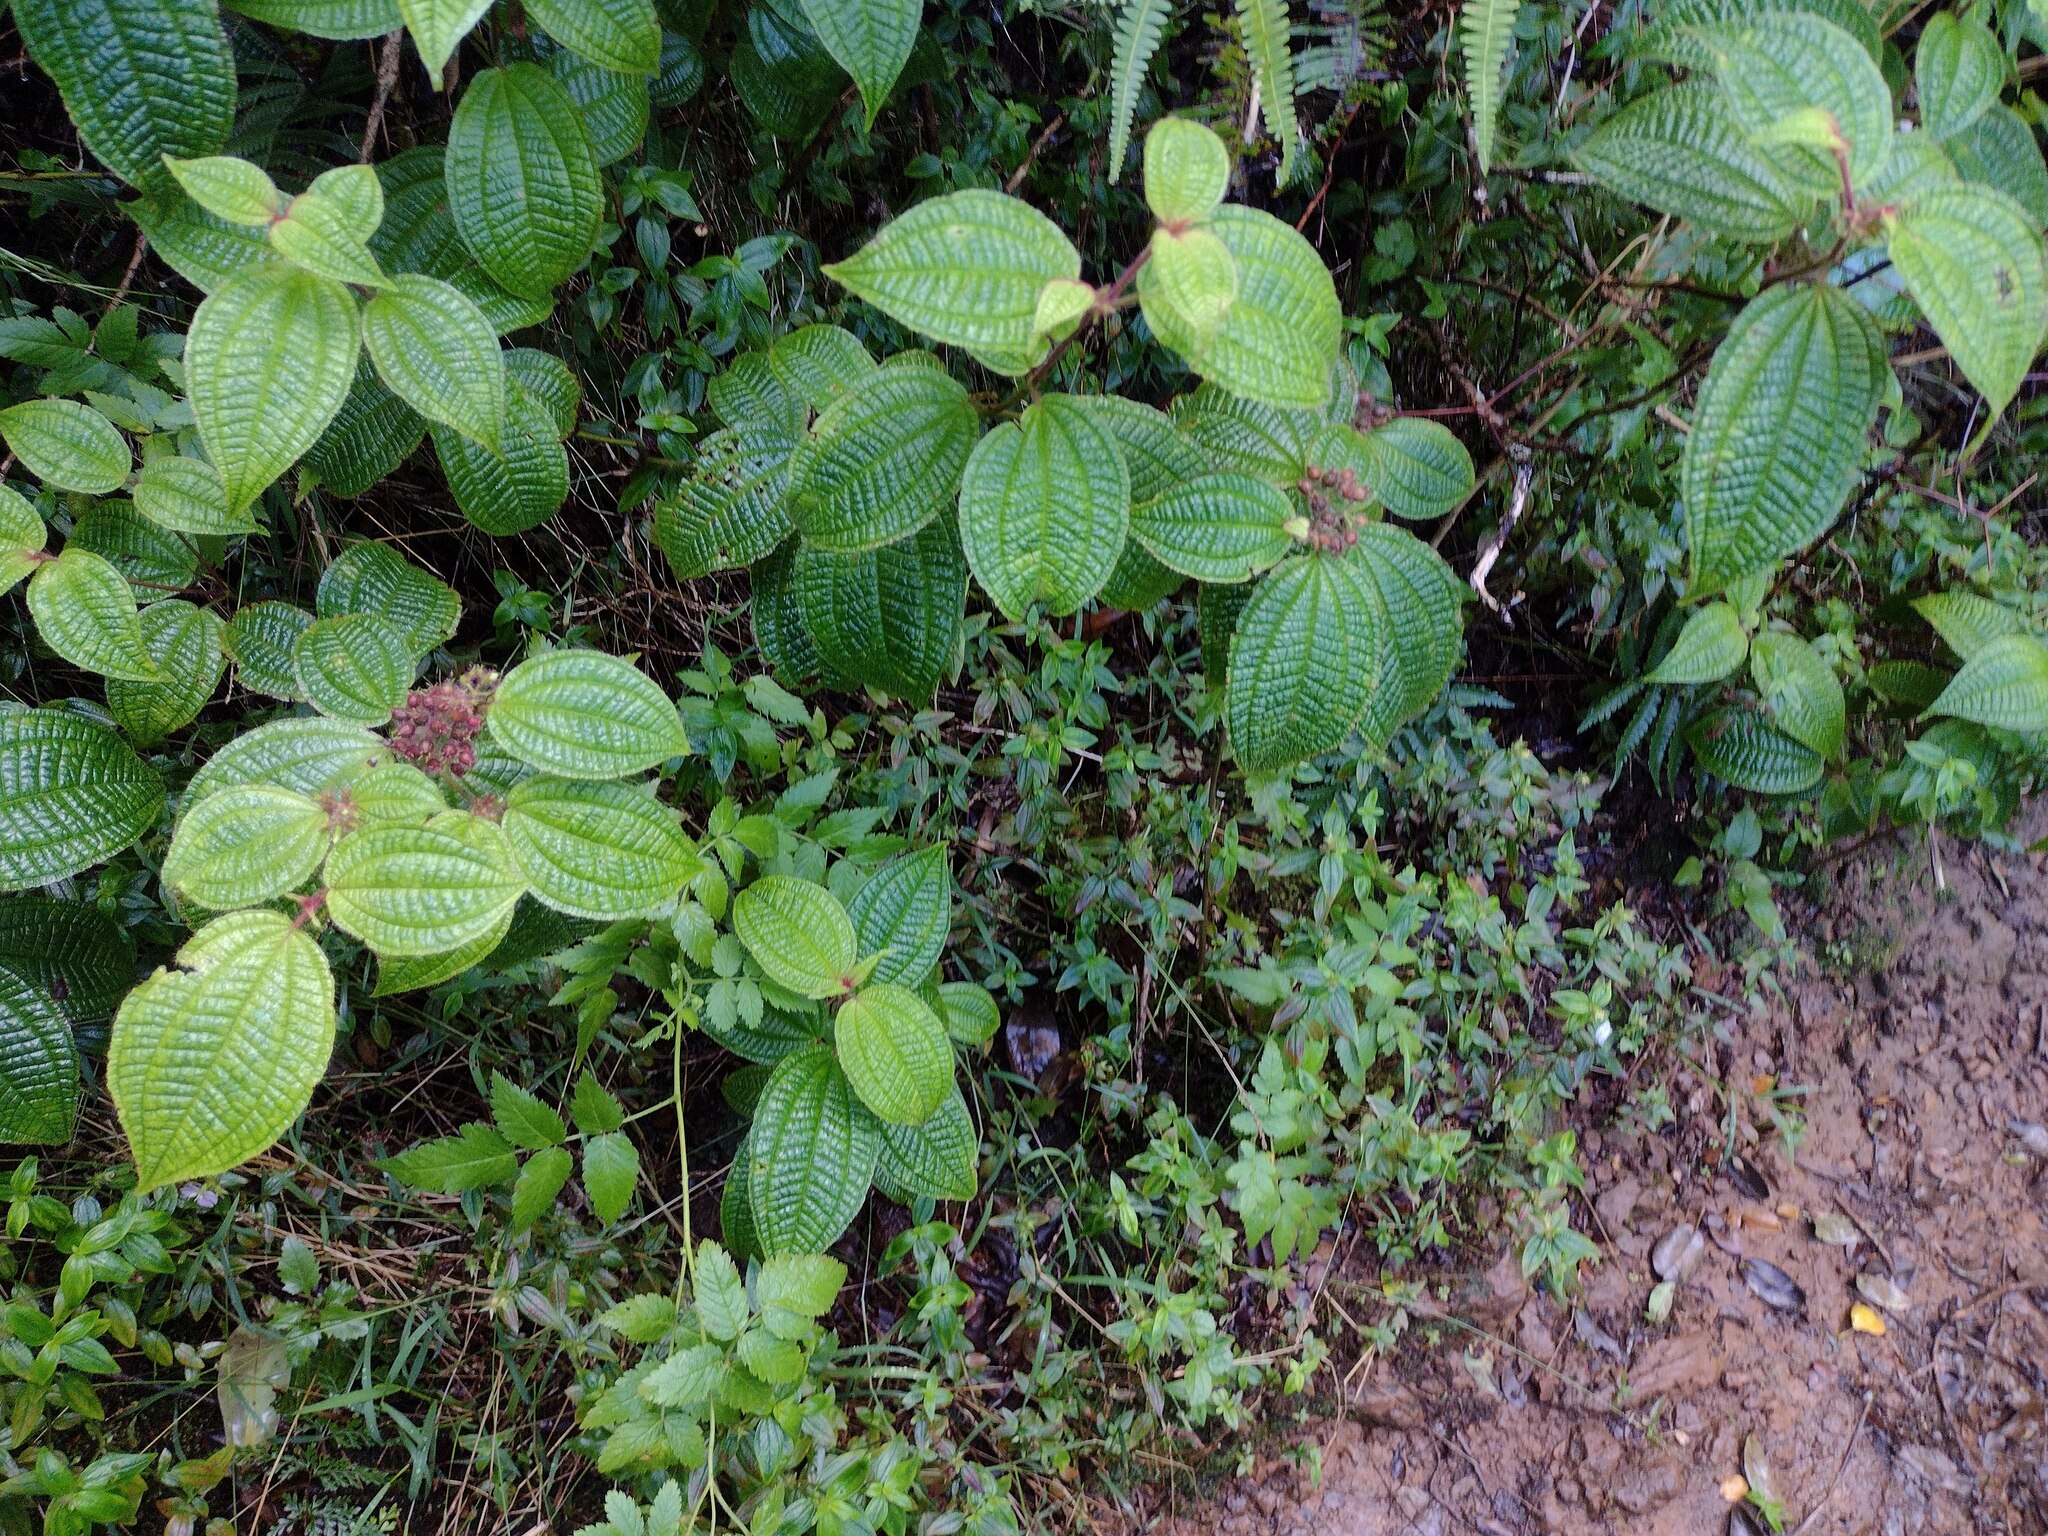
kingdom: Plantae
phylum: Tracheophyta
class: Magnoliopsida
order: Myrtales
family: Melastomataceae
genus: Miconia
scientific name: Miconia crenata
